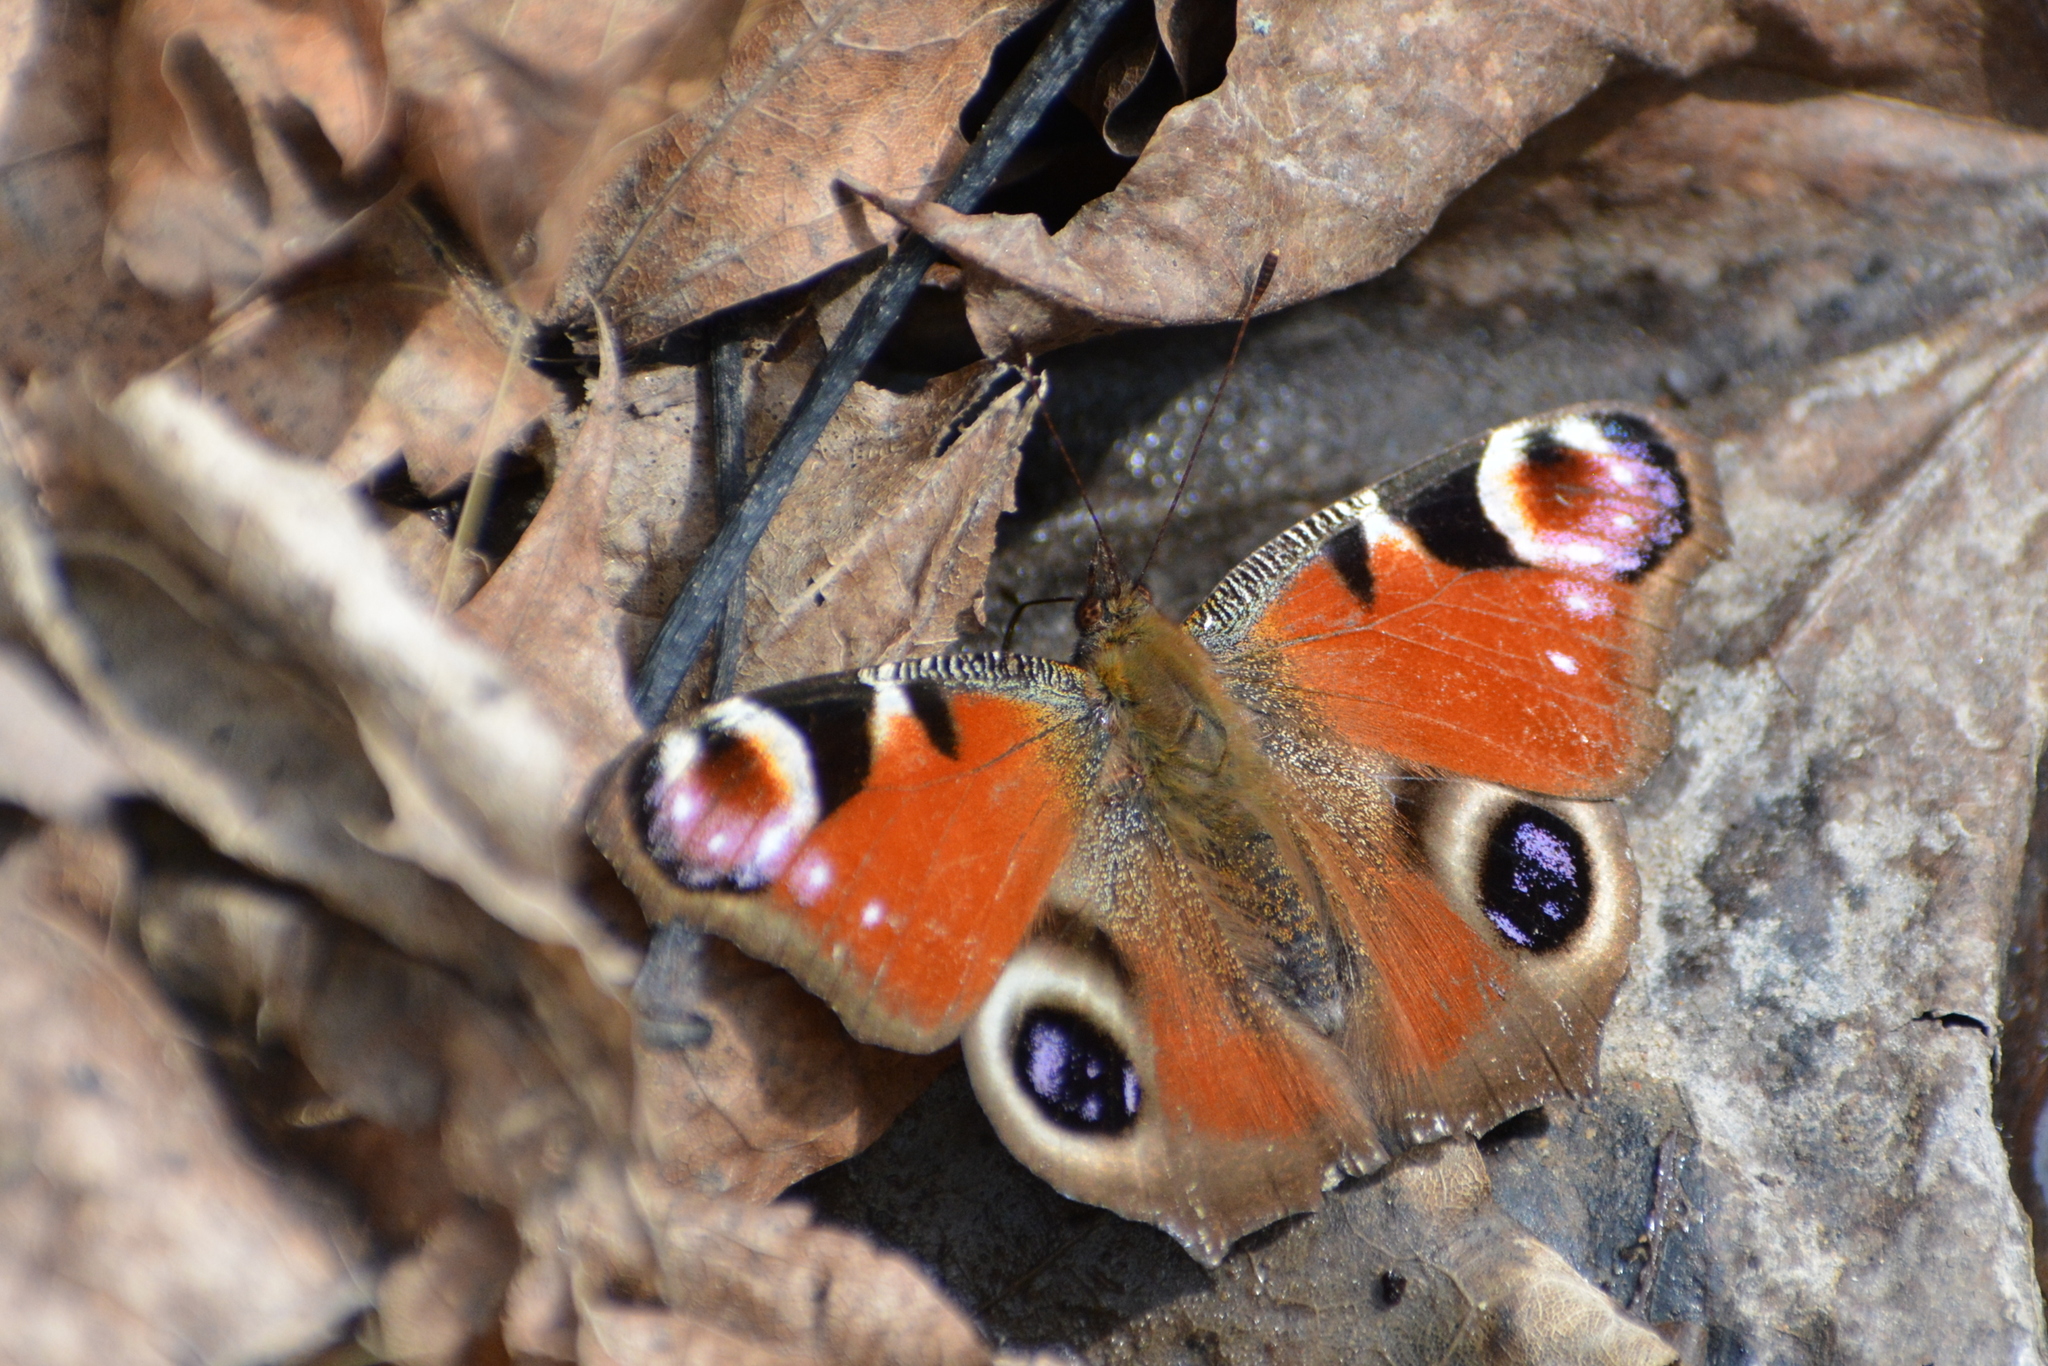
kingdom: Animalia
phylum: Arthropoda
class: Insecta
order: Lepidoptera
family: Nymphalidae
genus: Aglais
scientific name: Aglais io
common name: Peacock
